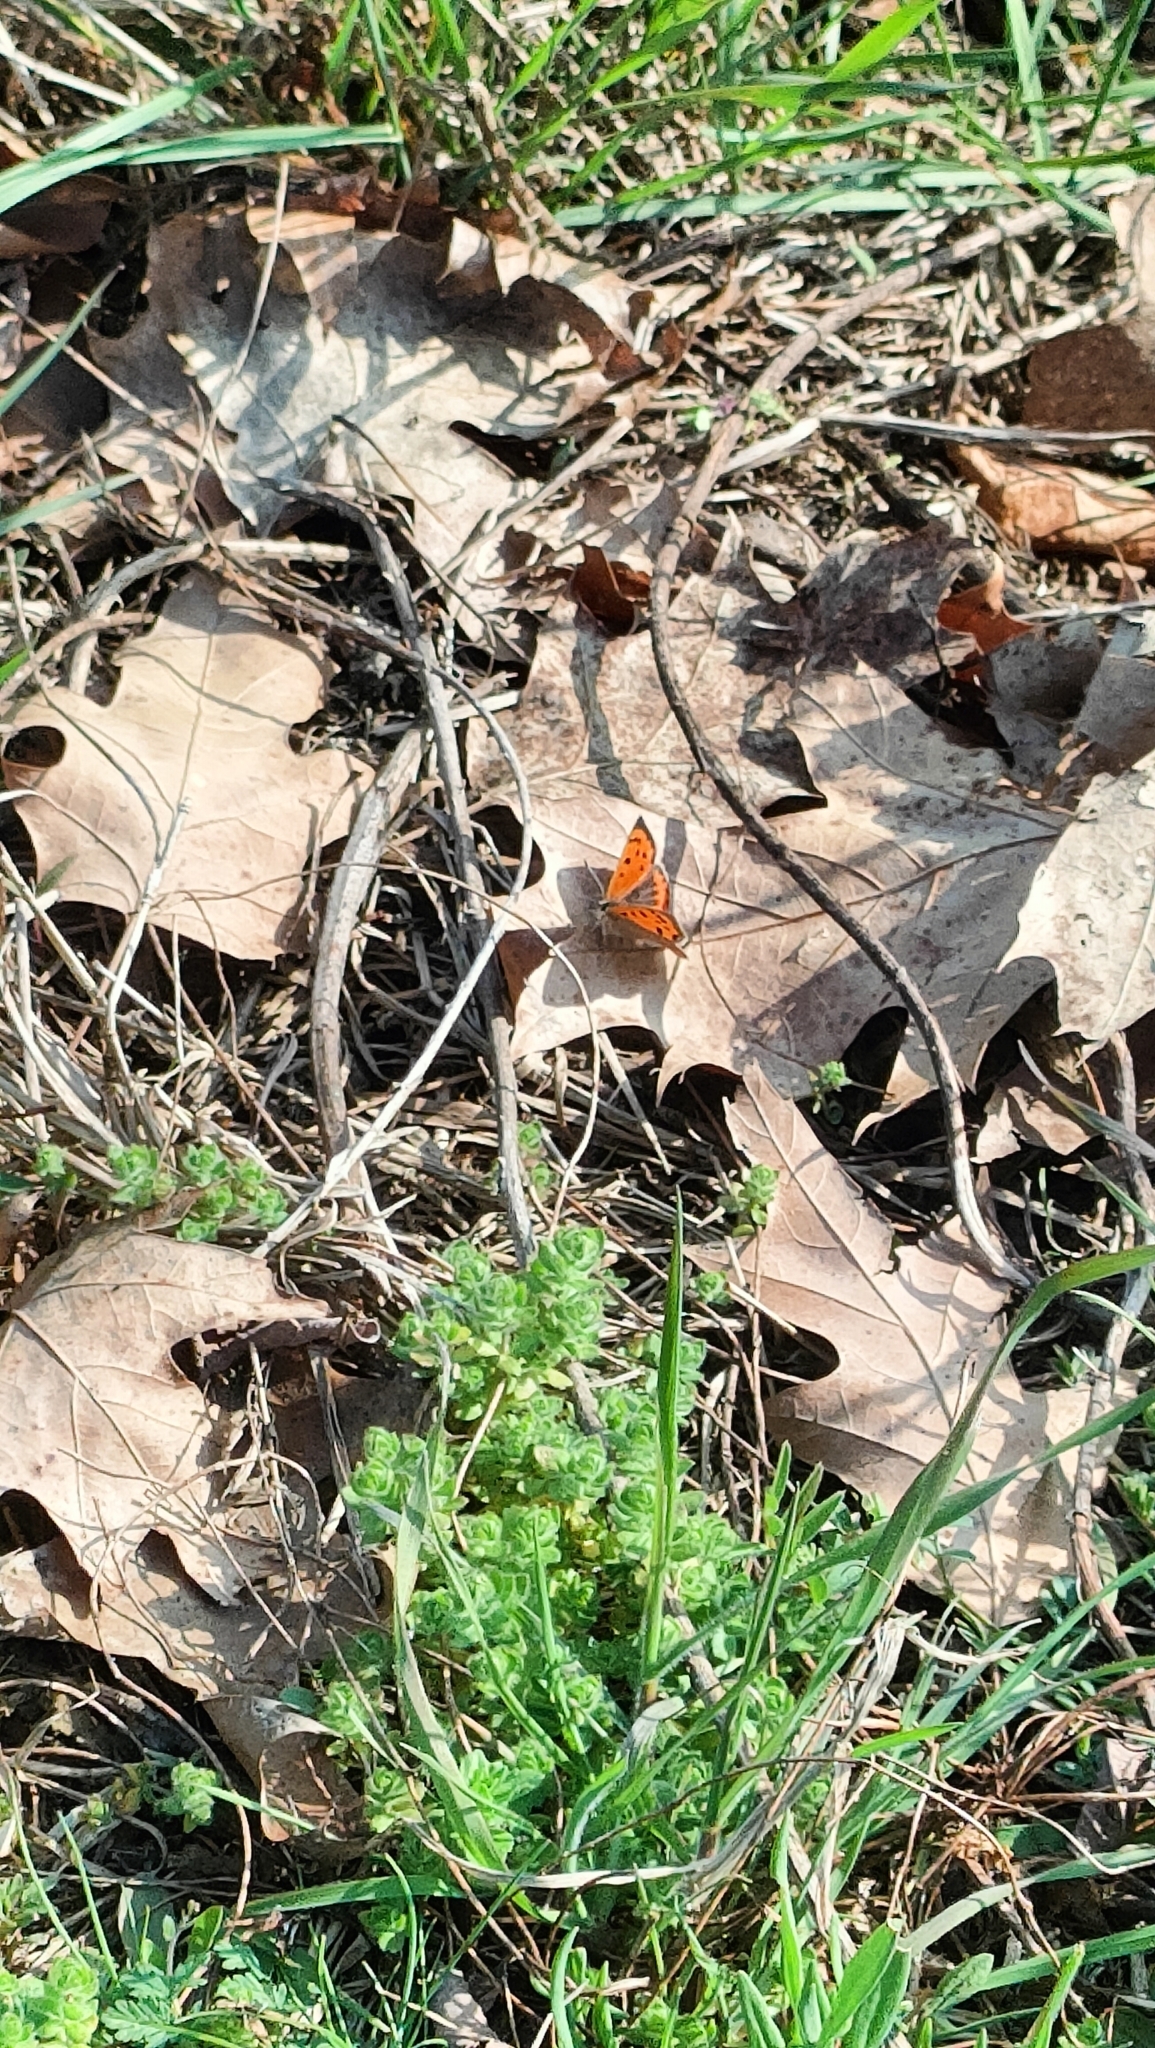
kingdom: Animalia
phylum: Arthropoda
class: Insecta
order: Lepidoptera
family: Lycaenidae
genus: Lycaena
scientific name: Lycaena phlaeas
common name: Small copper
